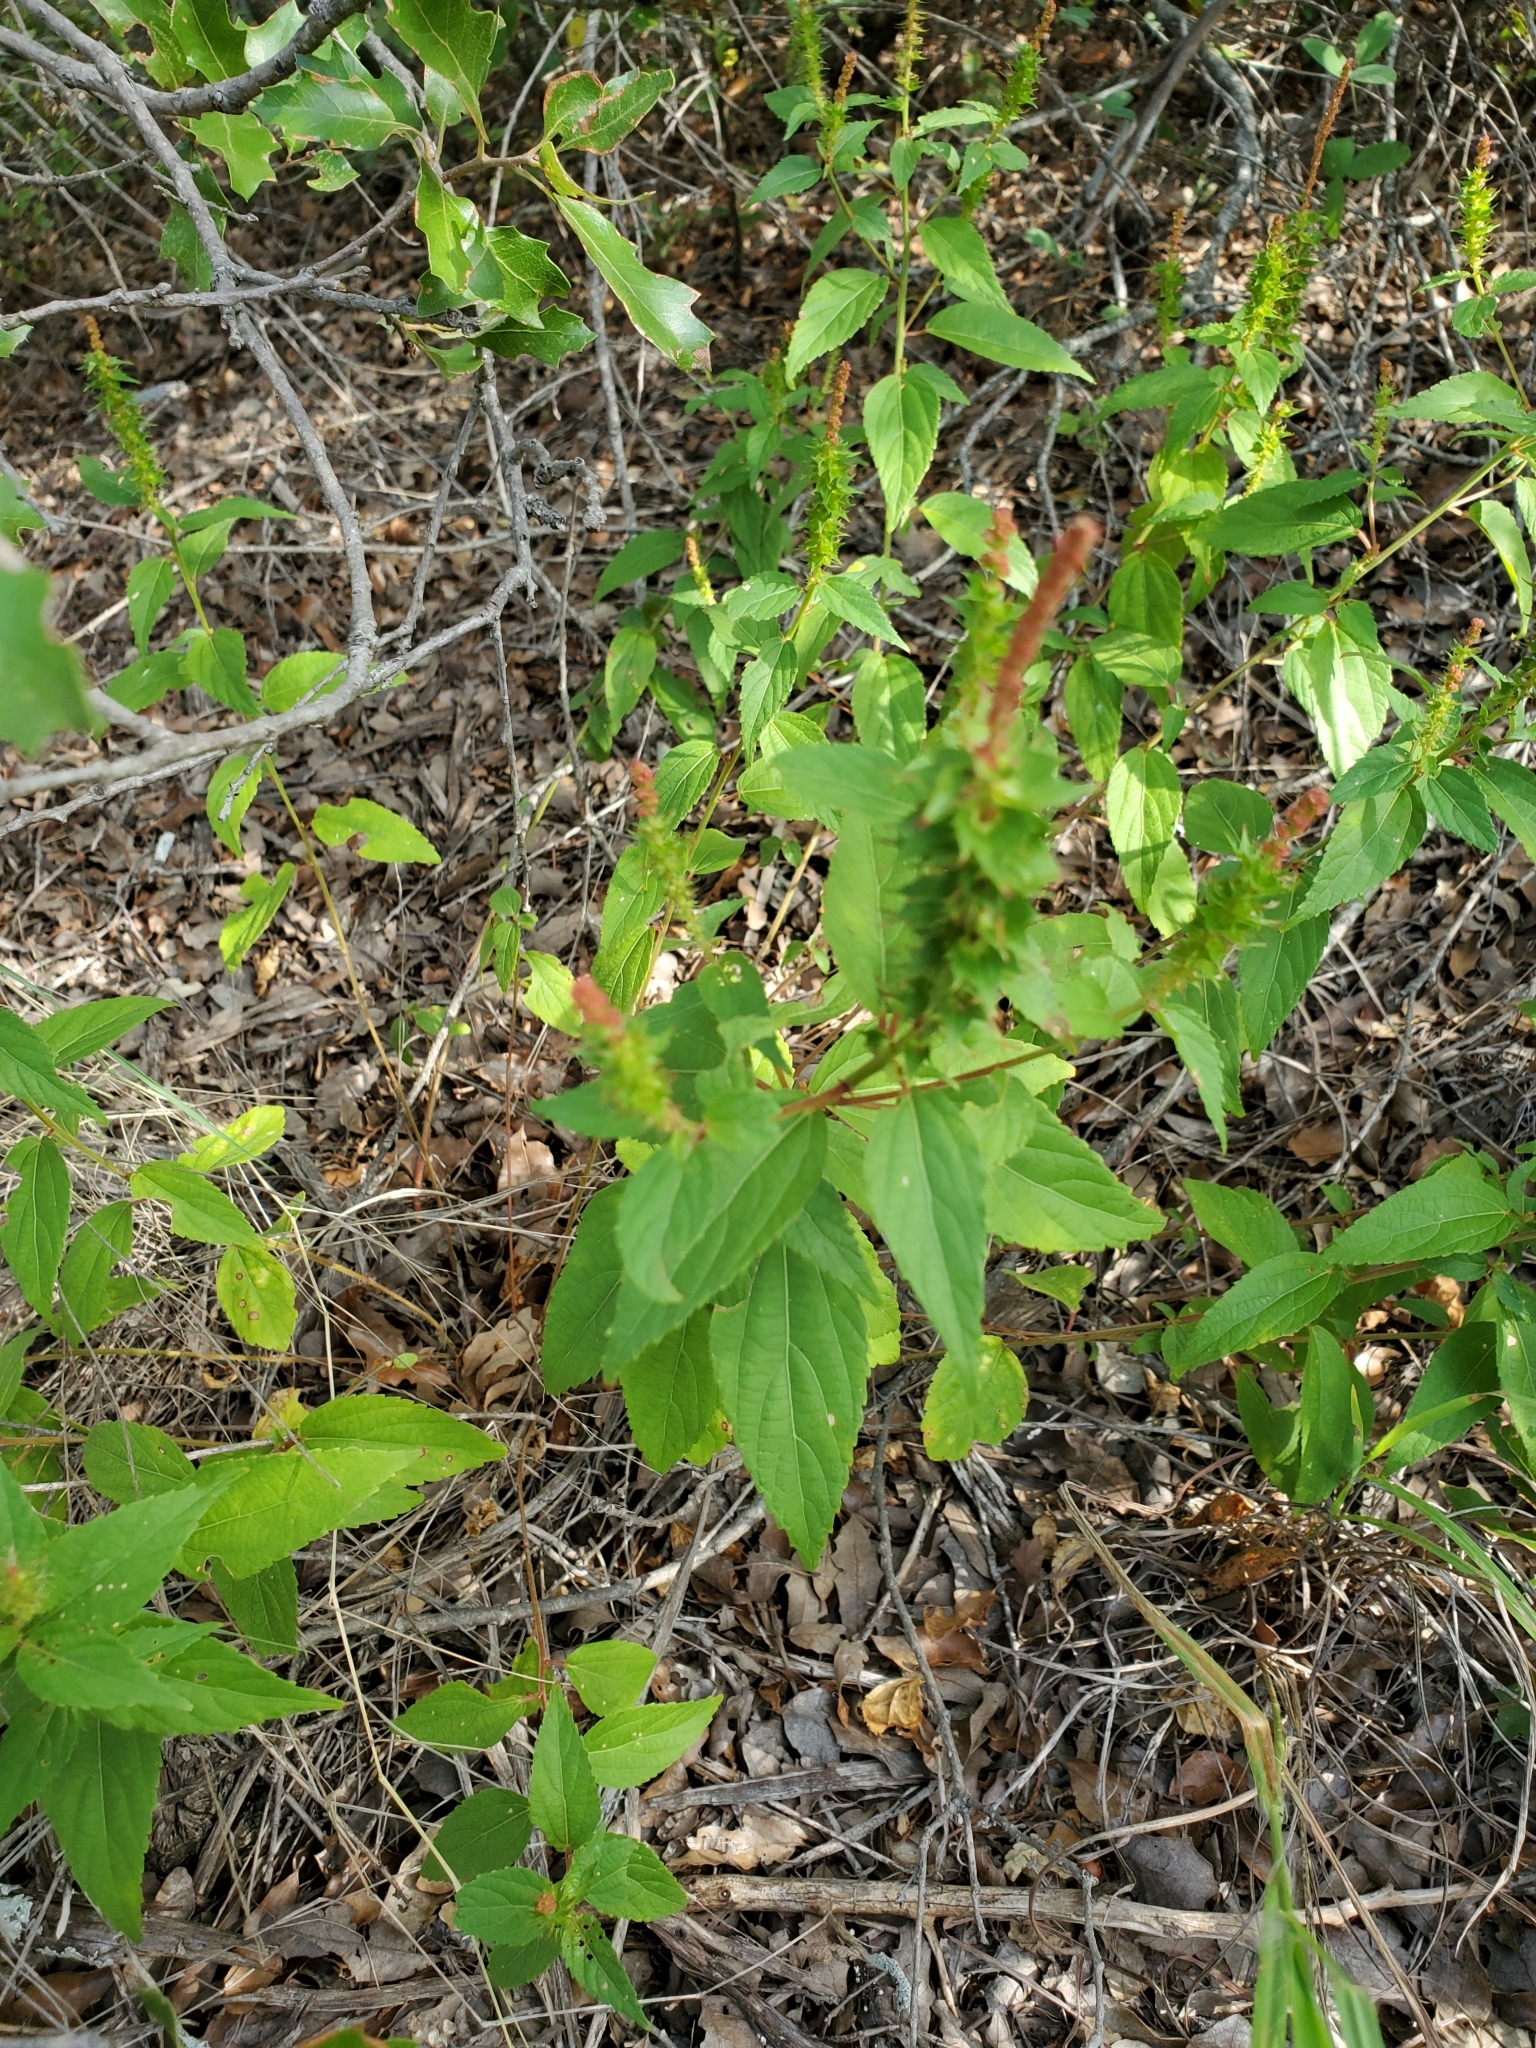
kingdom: Plantae
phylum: Tracheophyta
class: Magnoliopsida
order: Malpighiales
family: Euphorbiaceae
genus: Acalypha
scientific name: Acalypha phleoides
